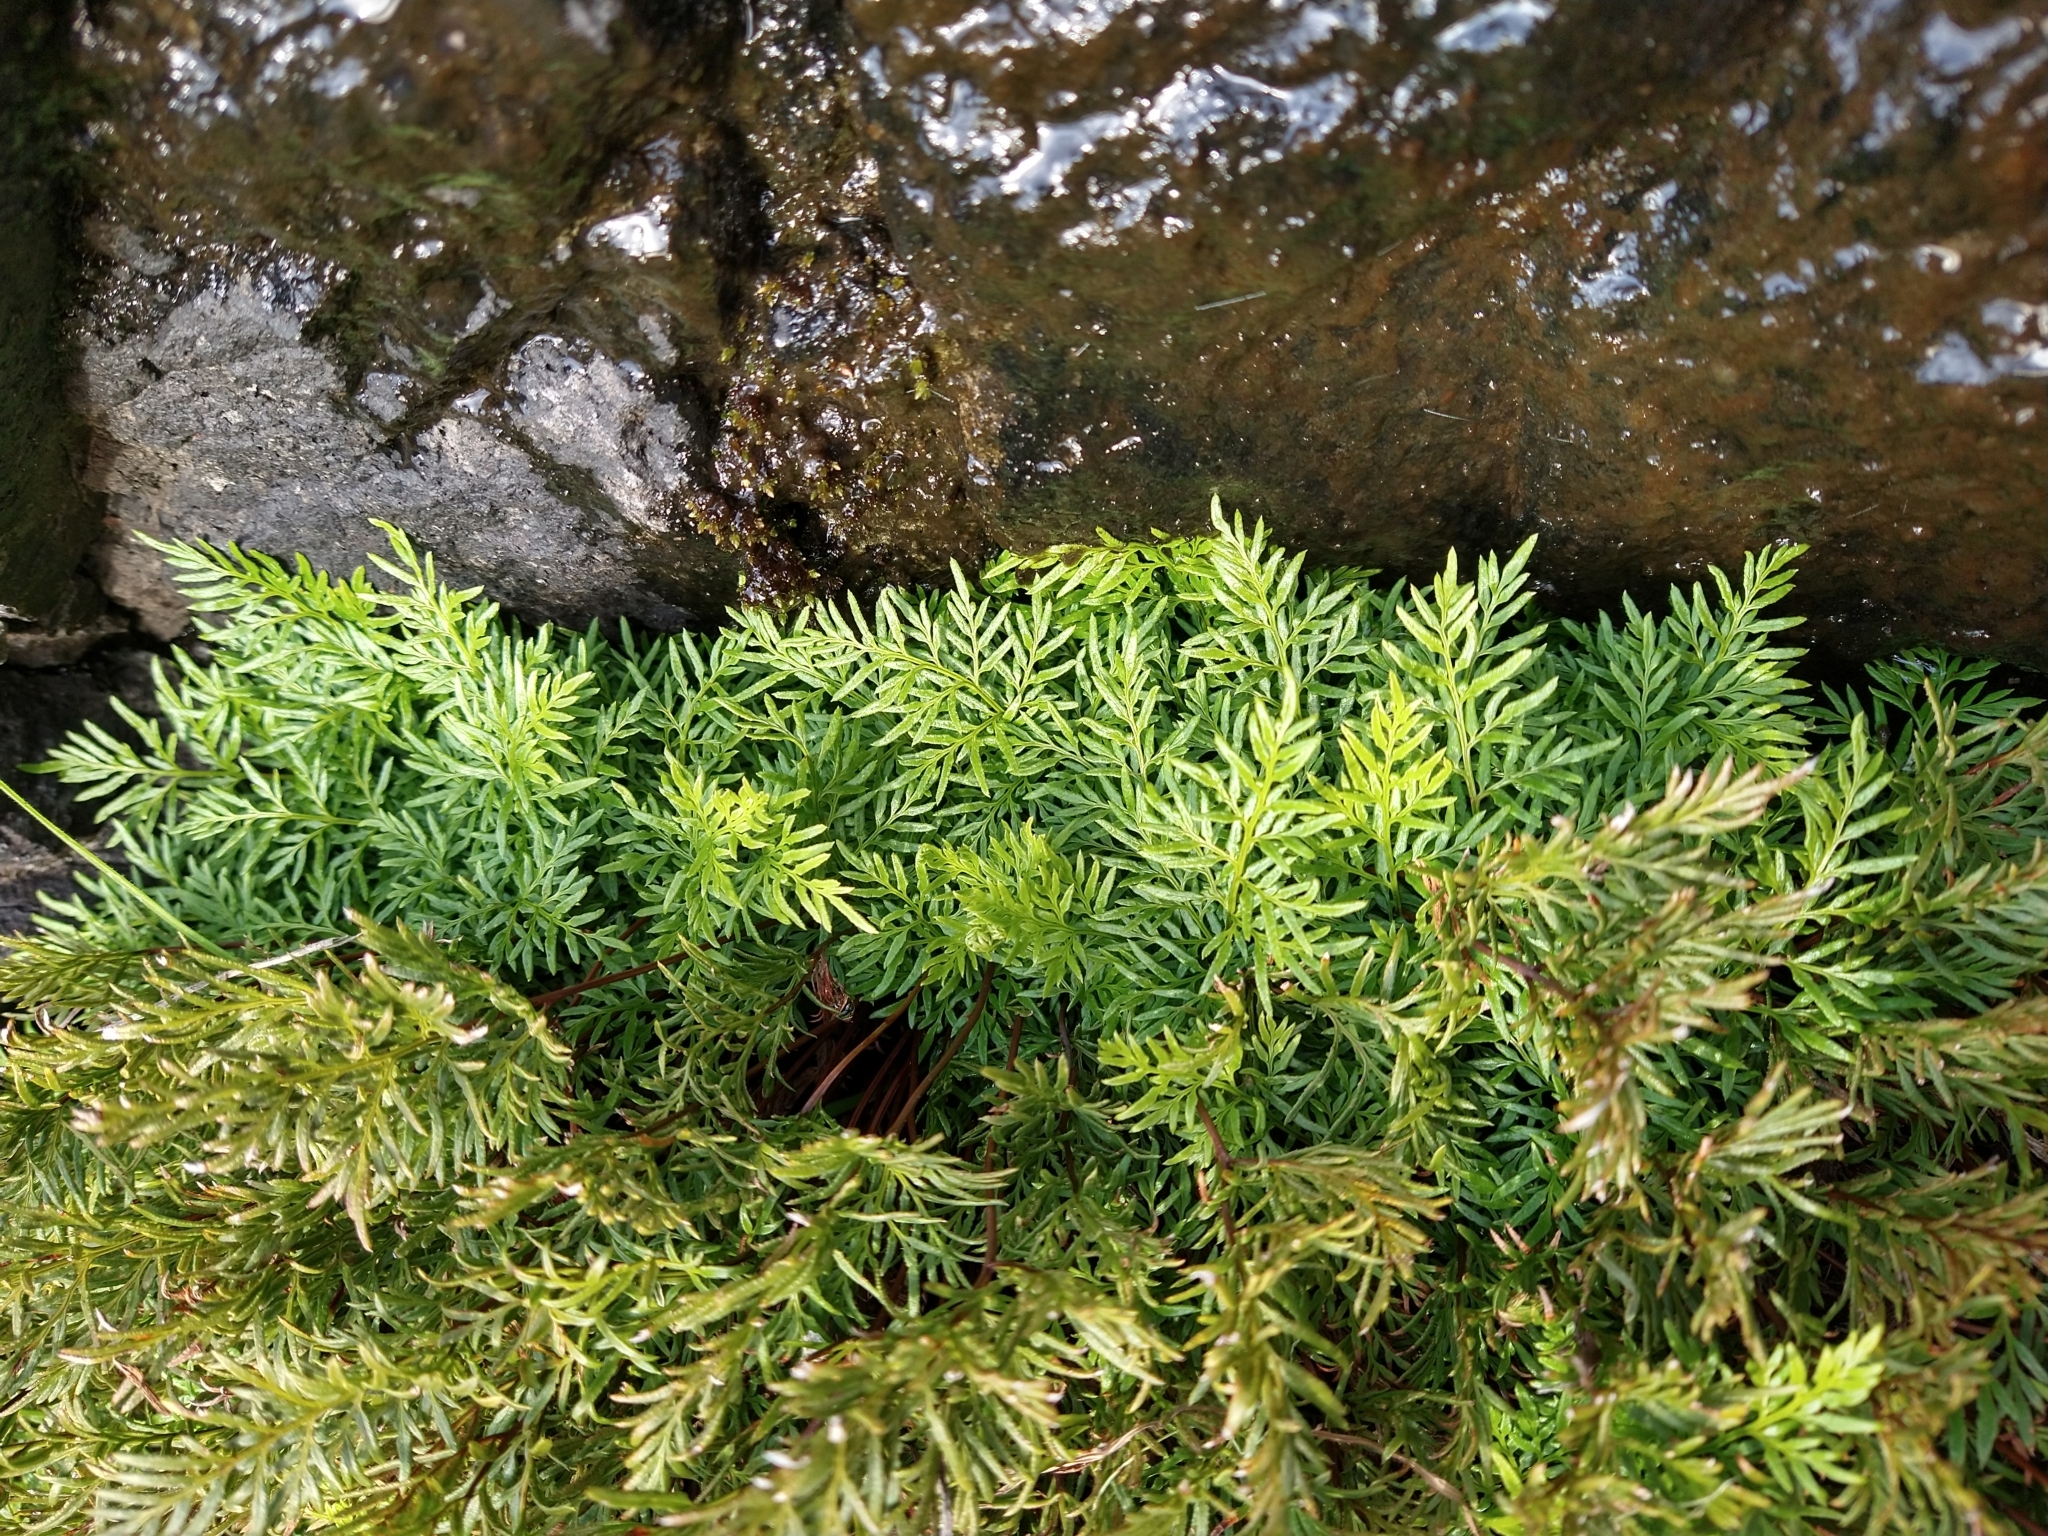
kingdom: Plantae
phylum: Tracheophyta
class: Polypodiopsida
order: Polypodiales
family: Pteridaceae
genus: Aspidotis
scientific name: Aspidotis densa
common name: Indian's dream
